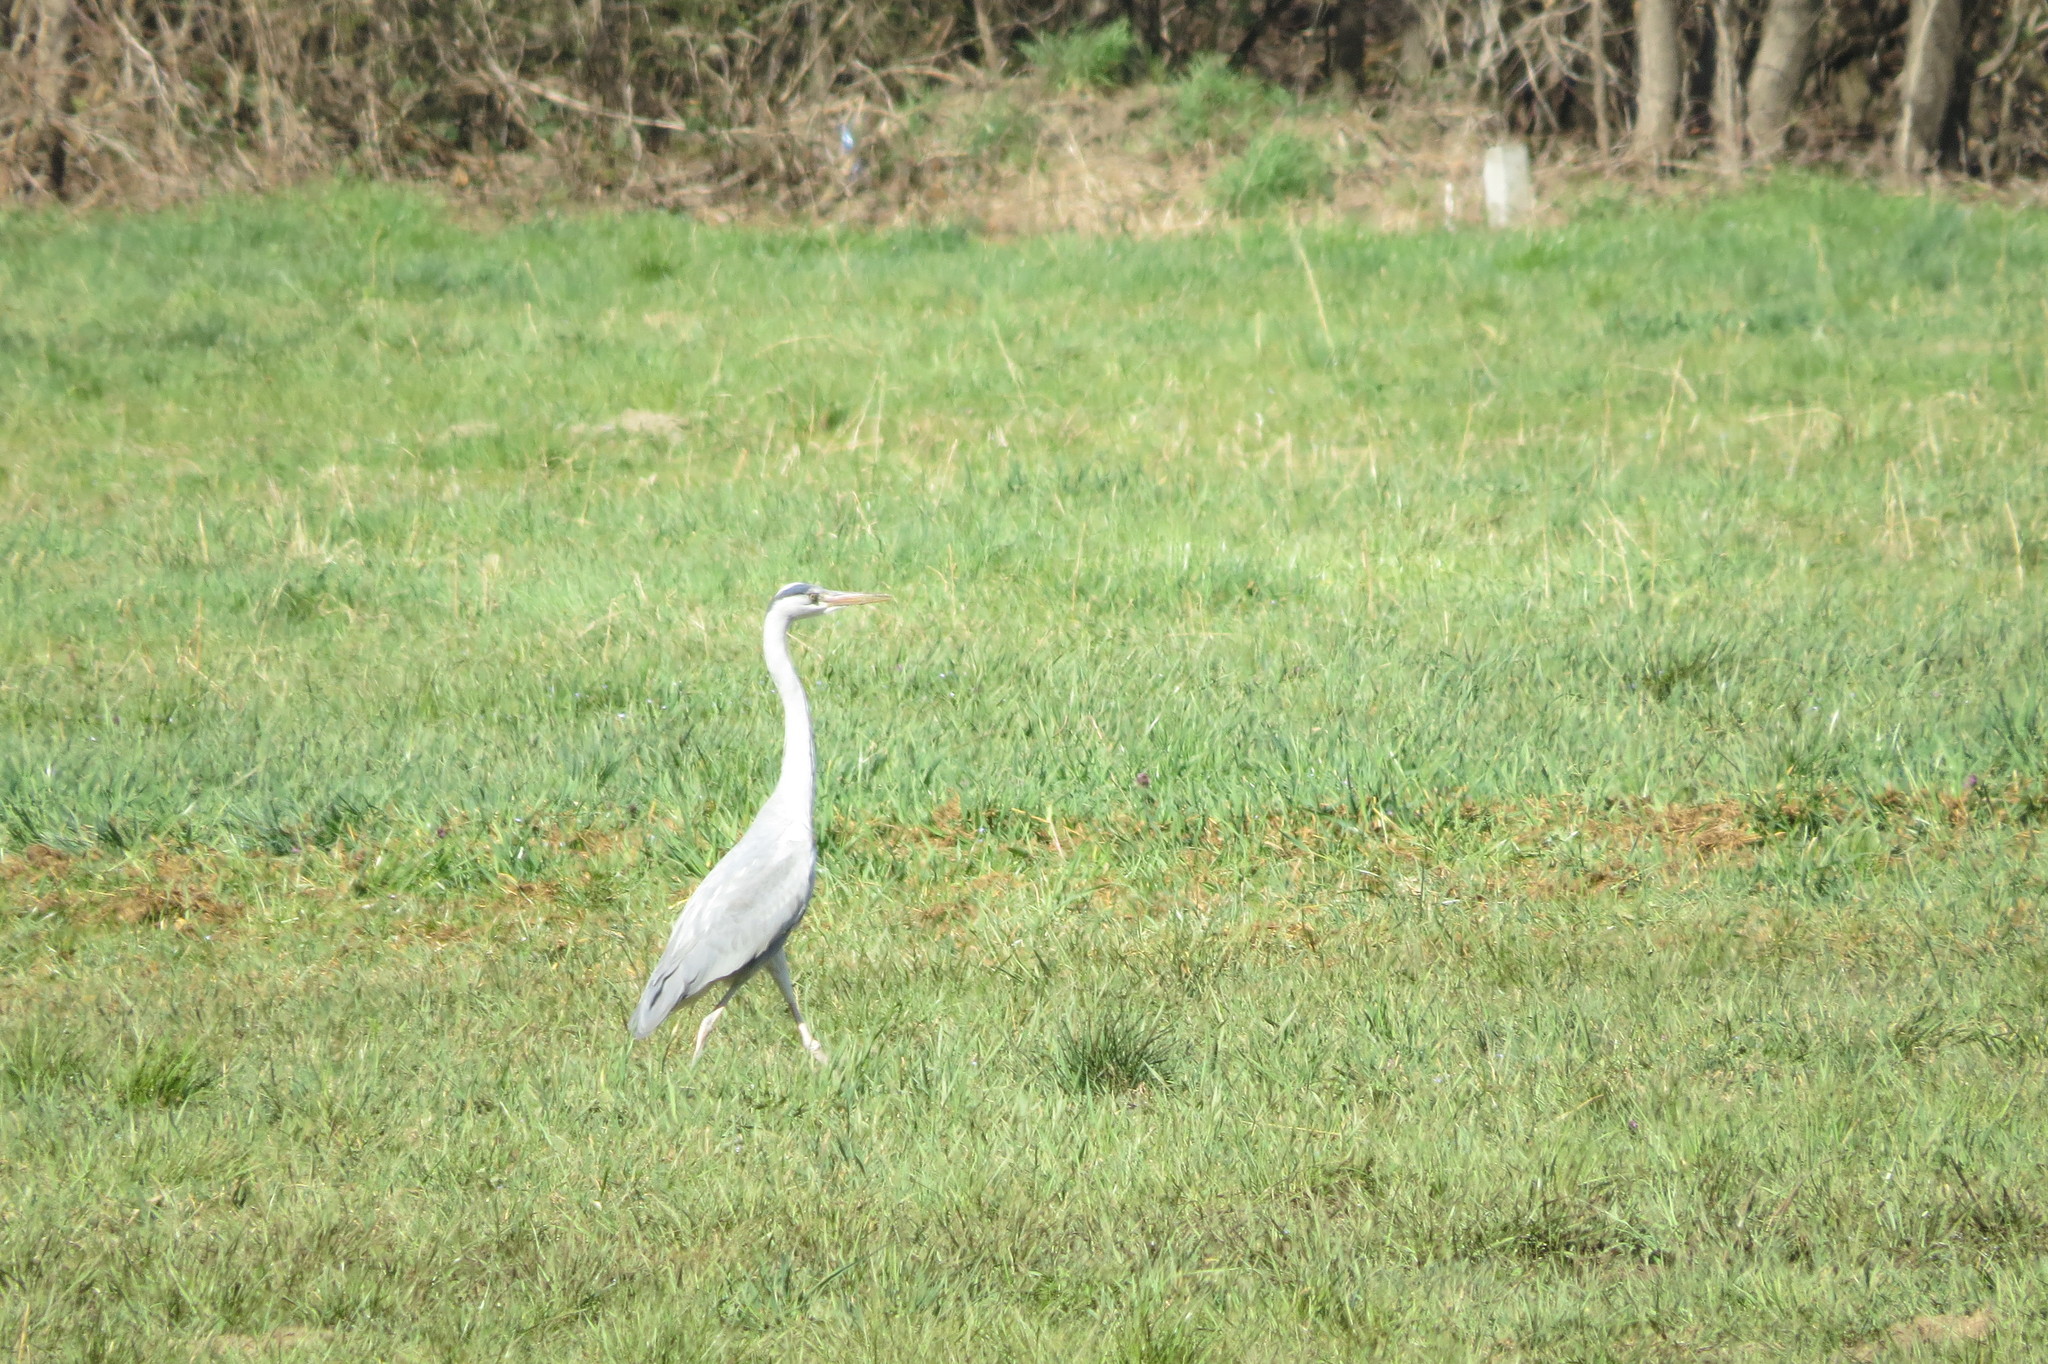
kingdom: Animalia
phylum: Chordata
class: Aves
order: Pelecaniformes
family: Ardeidae
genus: Ardea
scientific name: Ardea cinerea
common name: Grey heron
